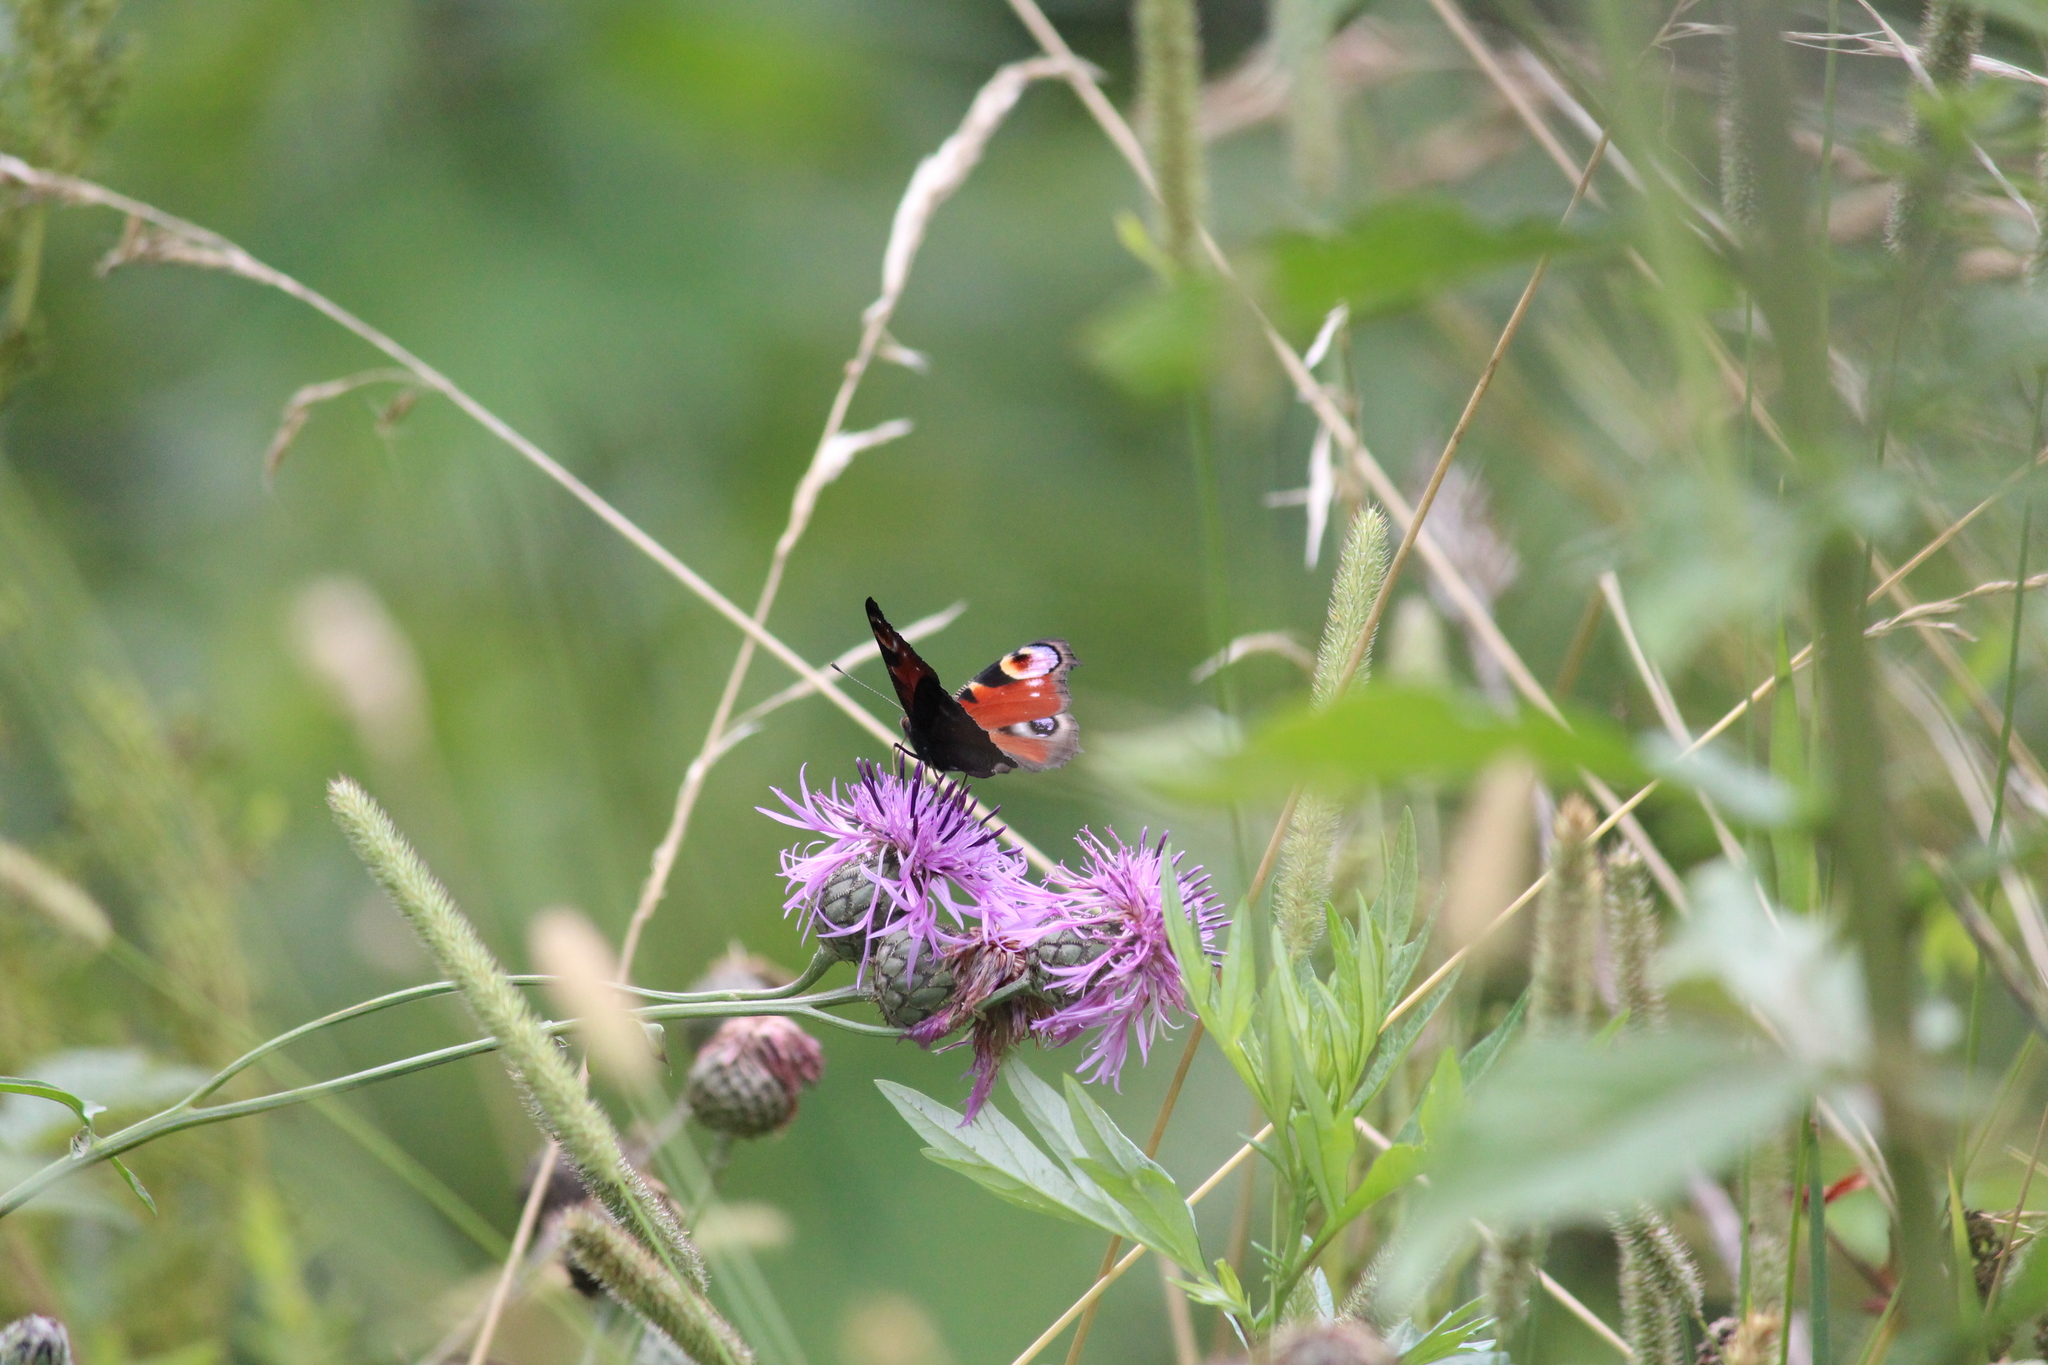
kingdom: Animalia
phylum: Arthropoda
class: Insecta
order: Lepidoptera
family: Nymphalidae
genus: Aglais
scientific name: Aglais io
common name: Peacock
